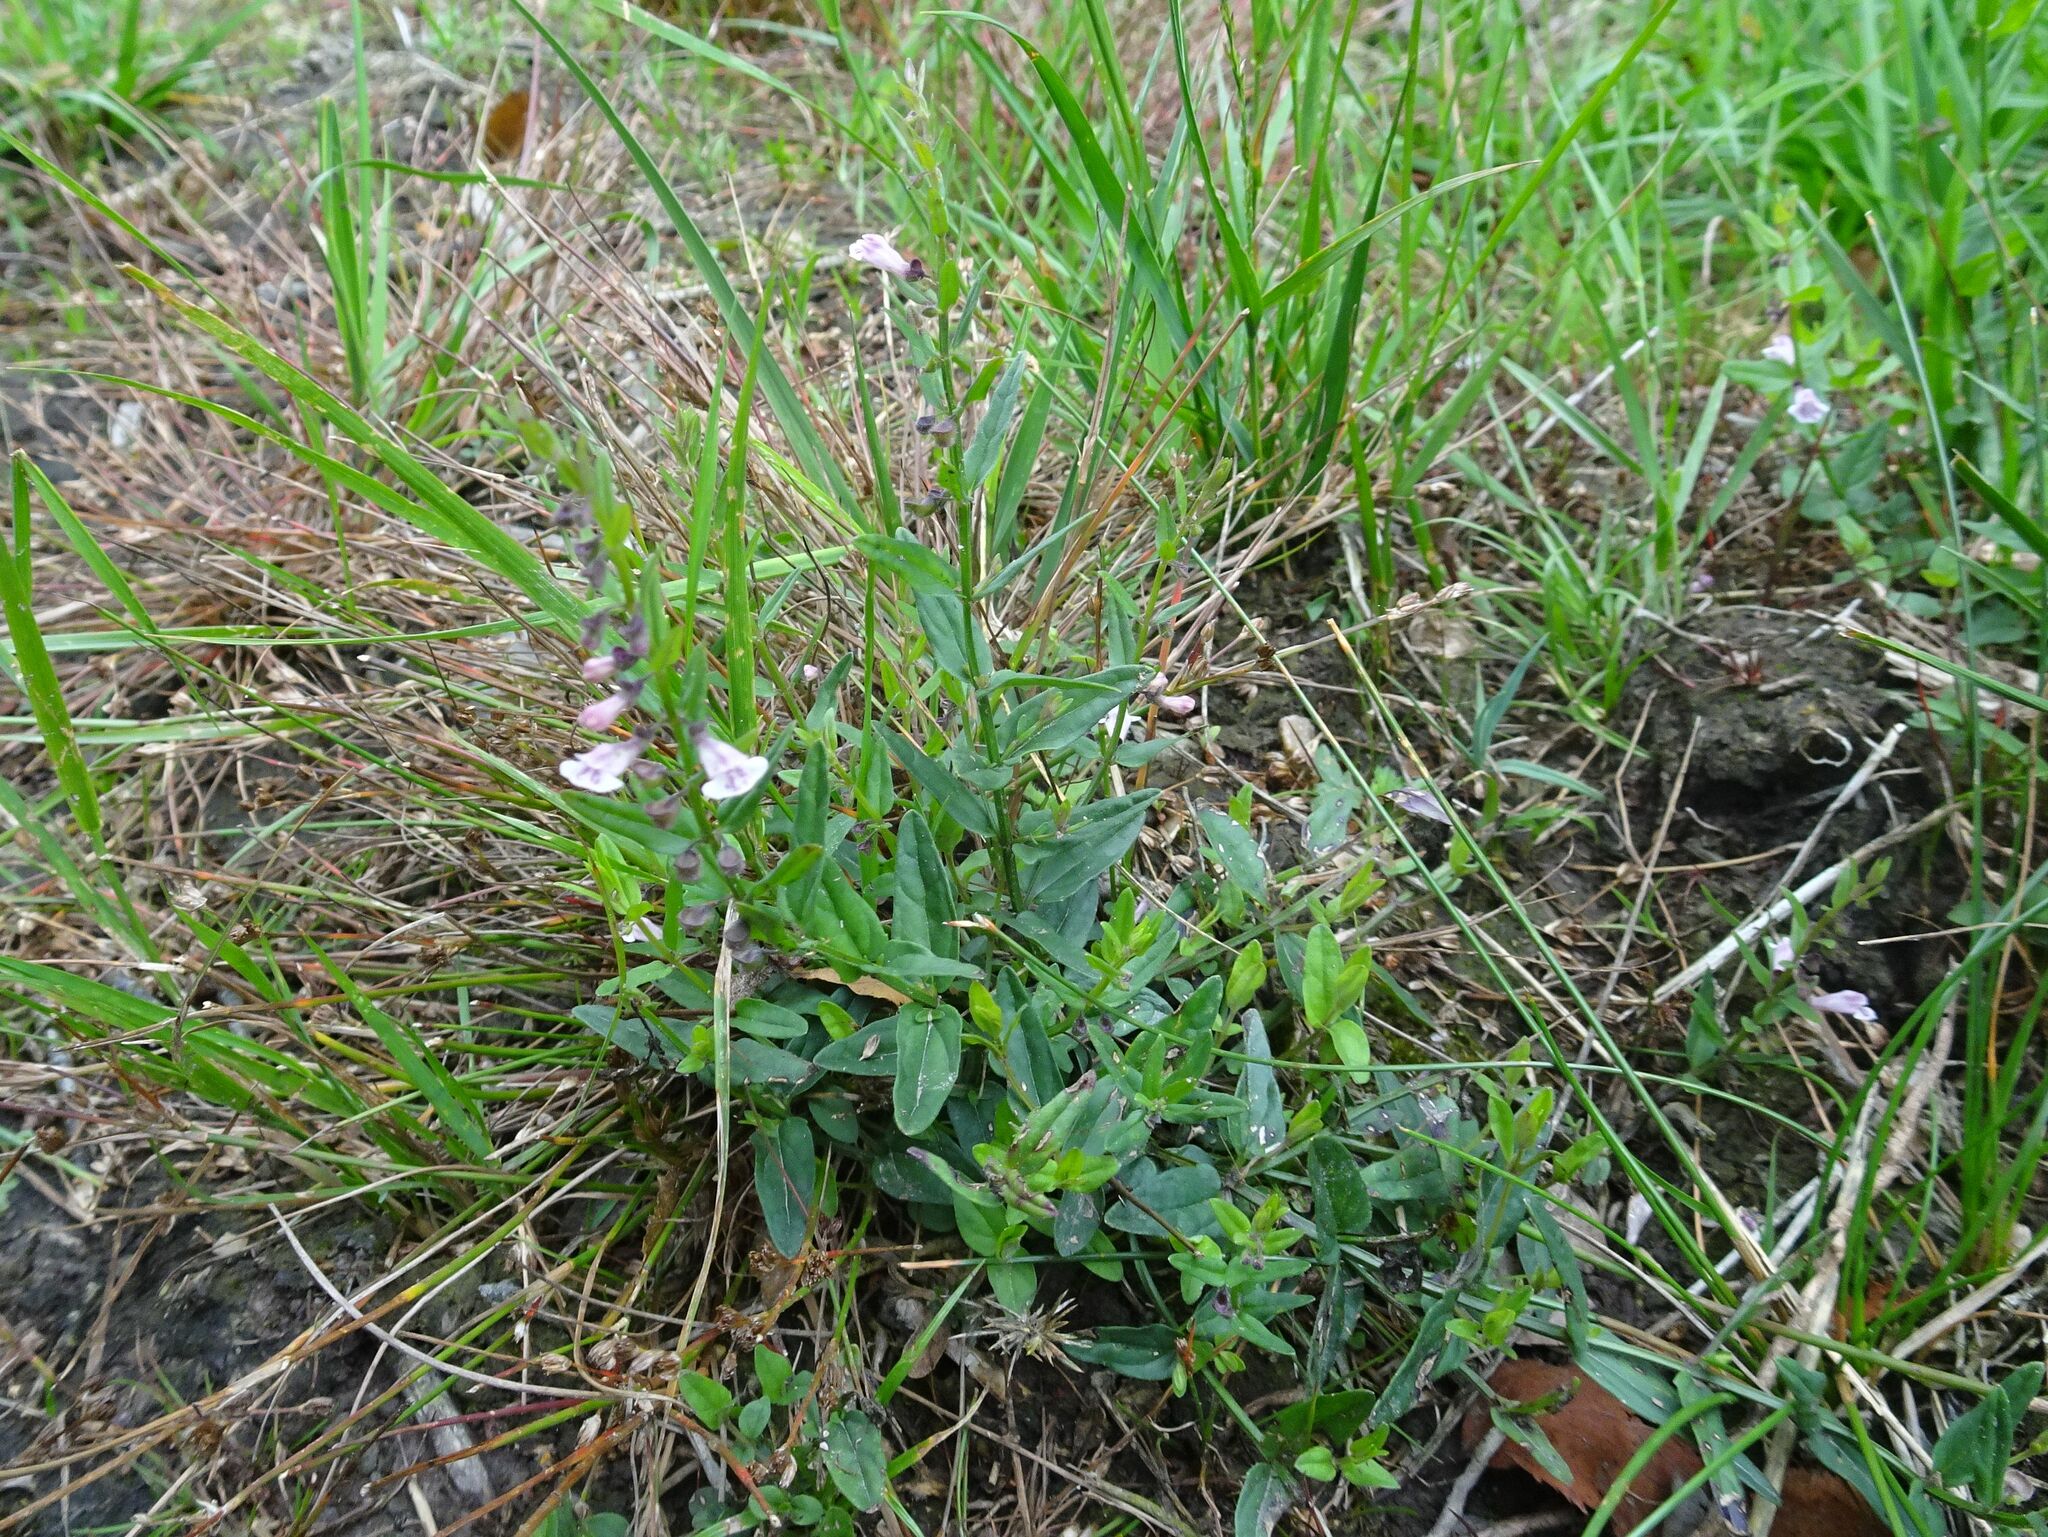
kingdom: Plantae
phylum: Tracheophyta
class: Magnoliopsida
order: Lamiales
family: Lamiaceae
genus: Scutellaria
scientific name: Scutellaria minor
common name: Lesser skullcap
